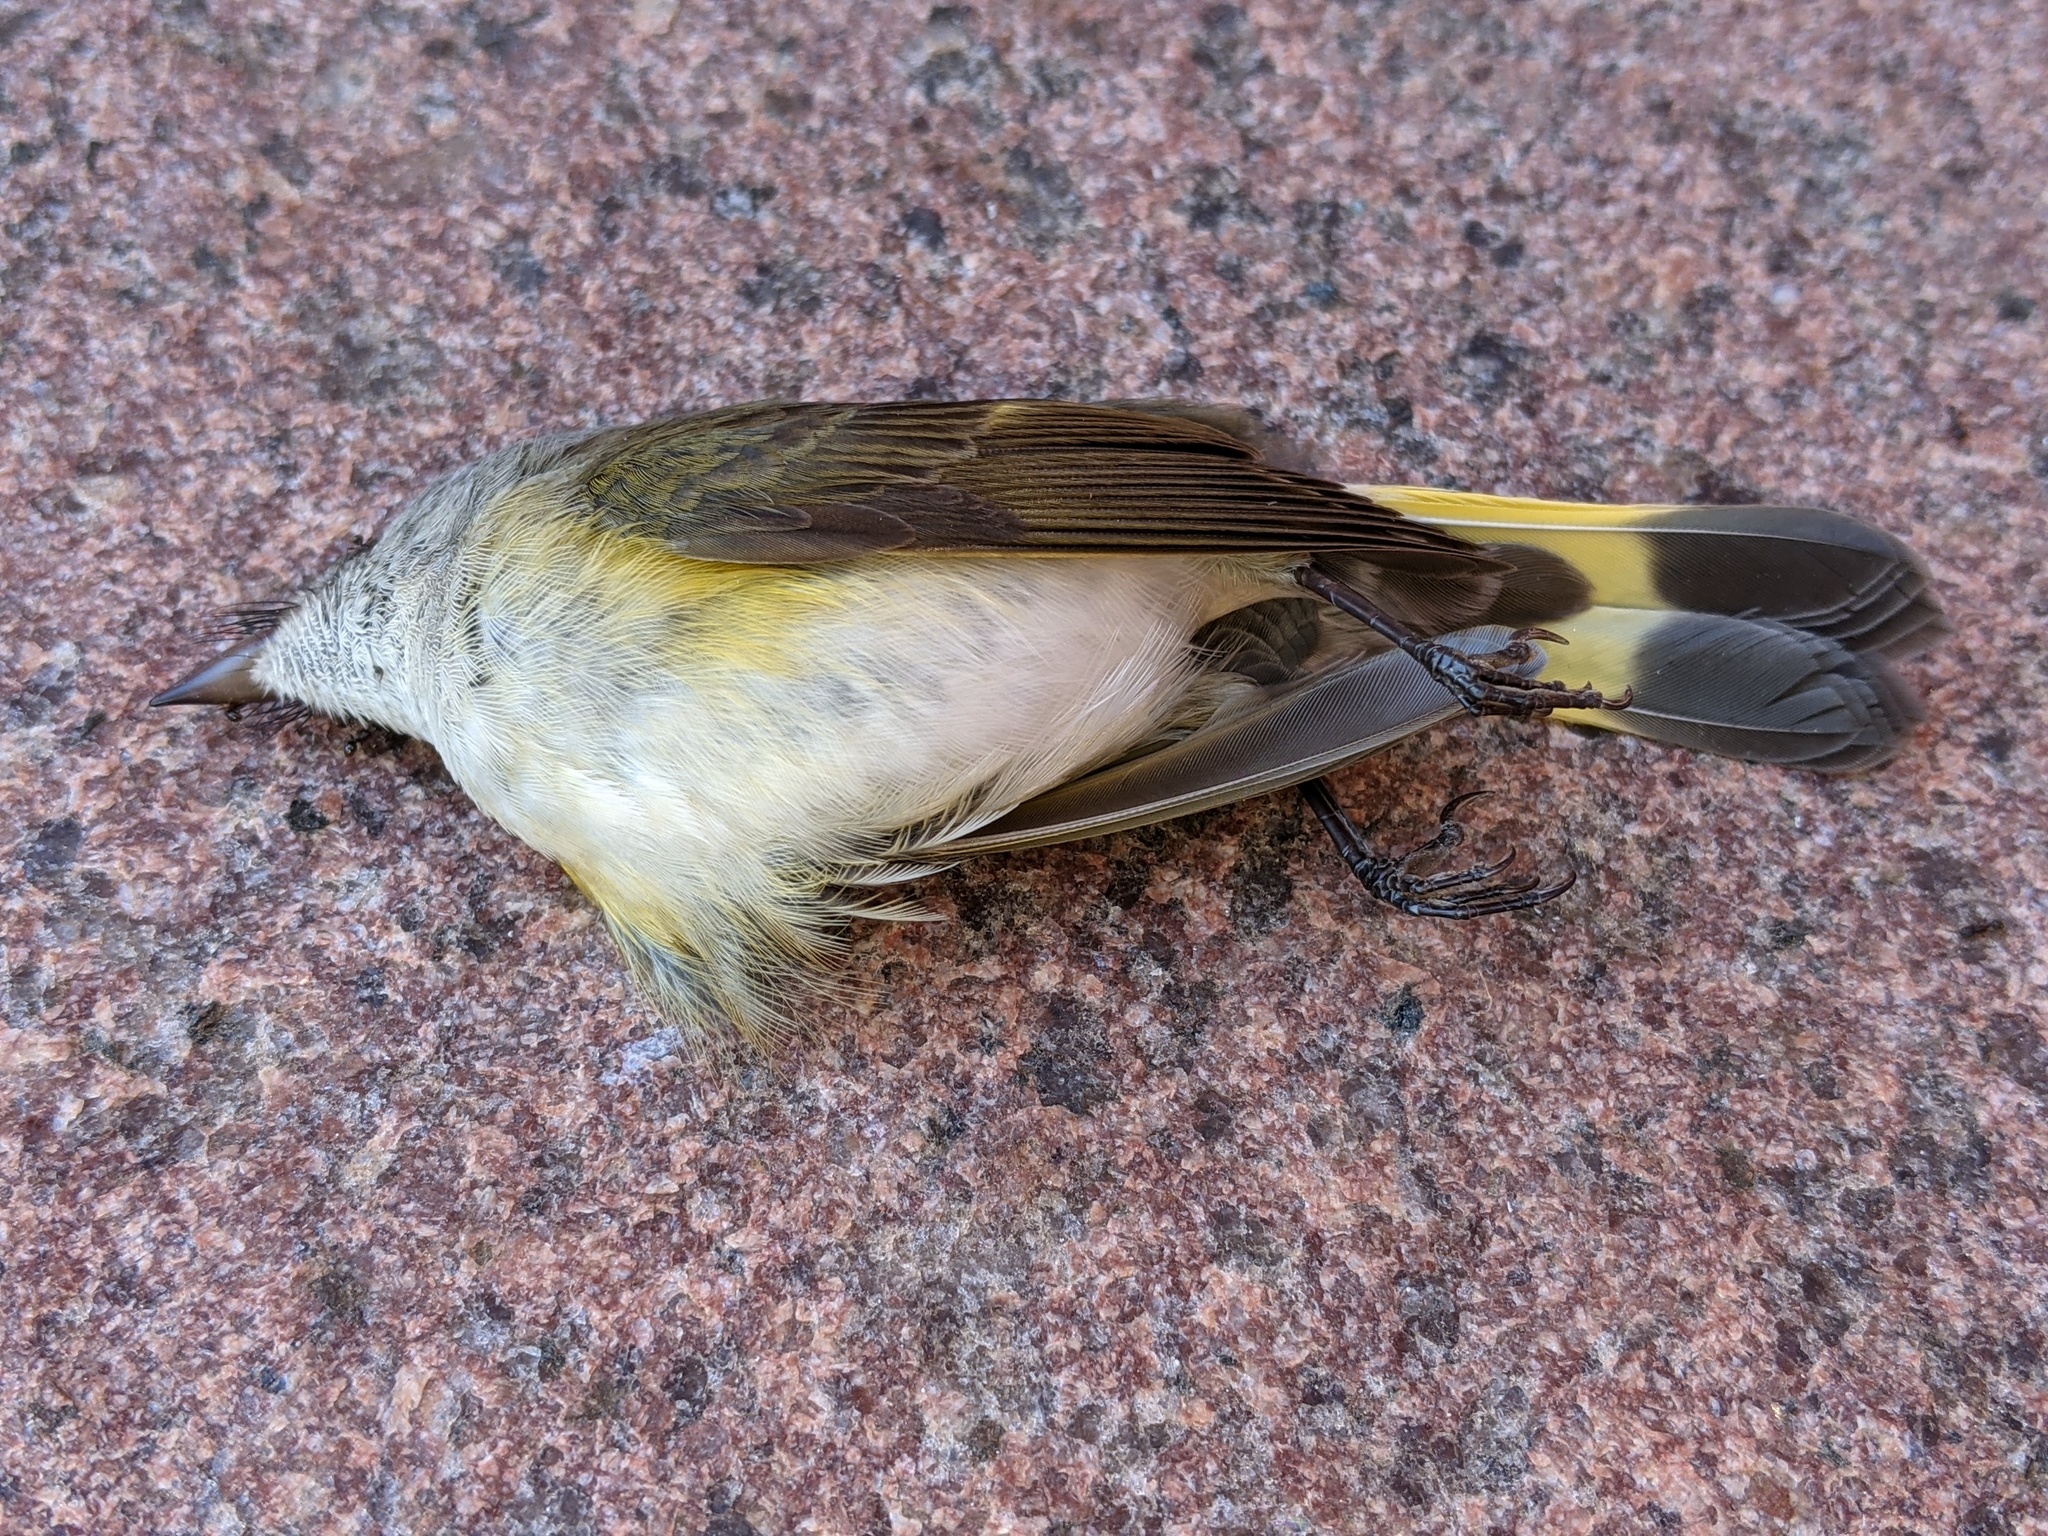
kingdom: Animalia
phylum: Chordata
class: Aves
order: Passeriformes
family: Parulidae
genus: Setophaga
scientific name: Setophaga ruticilla
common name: American redstart
